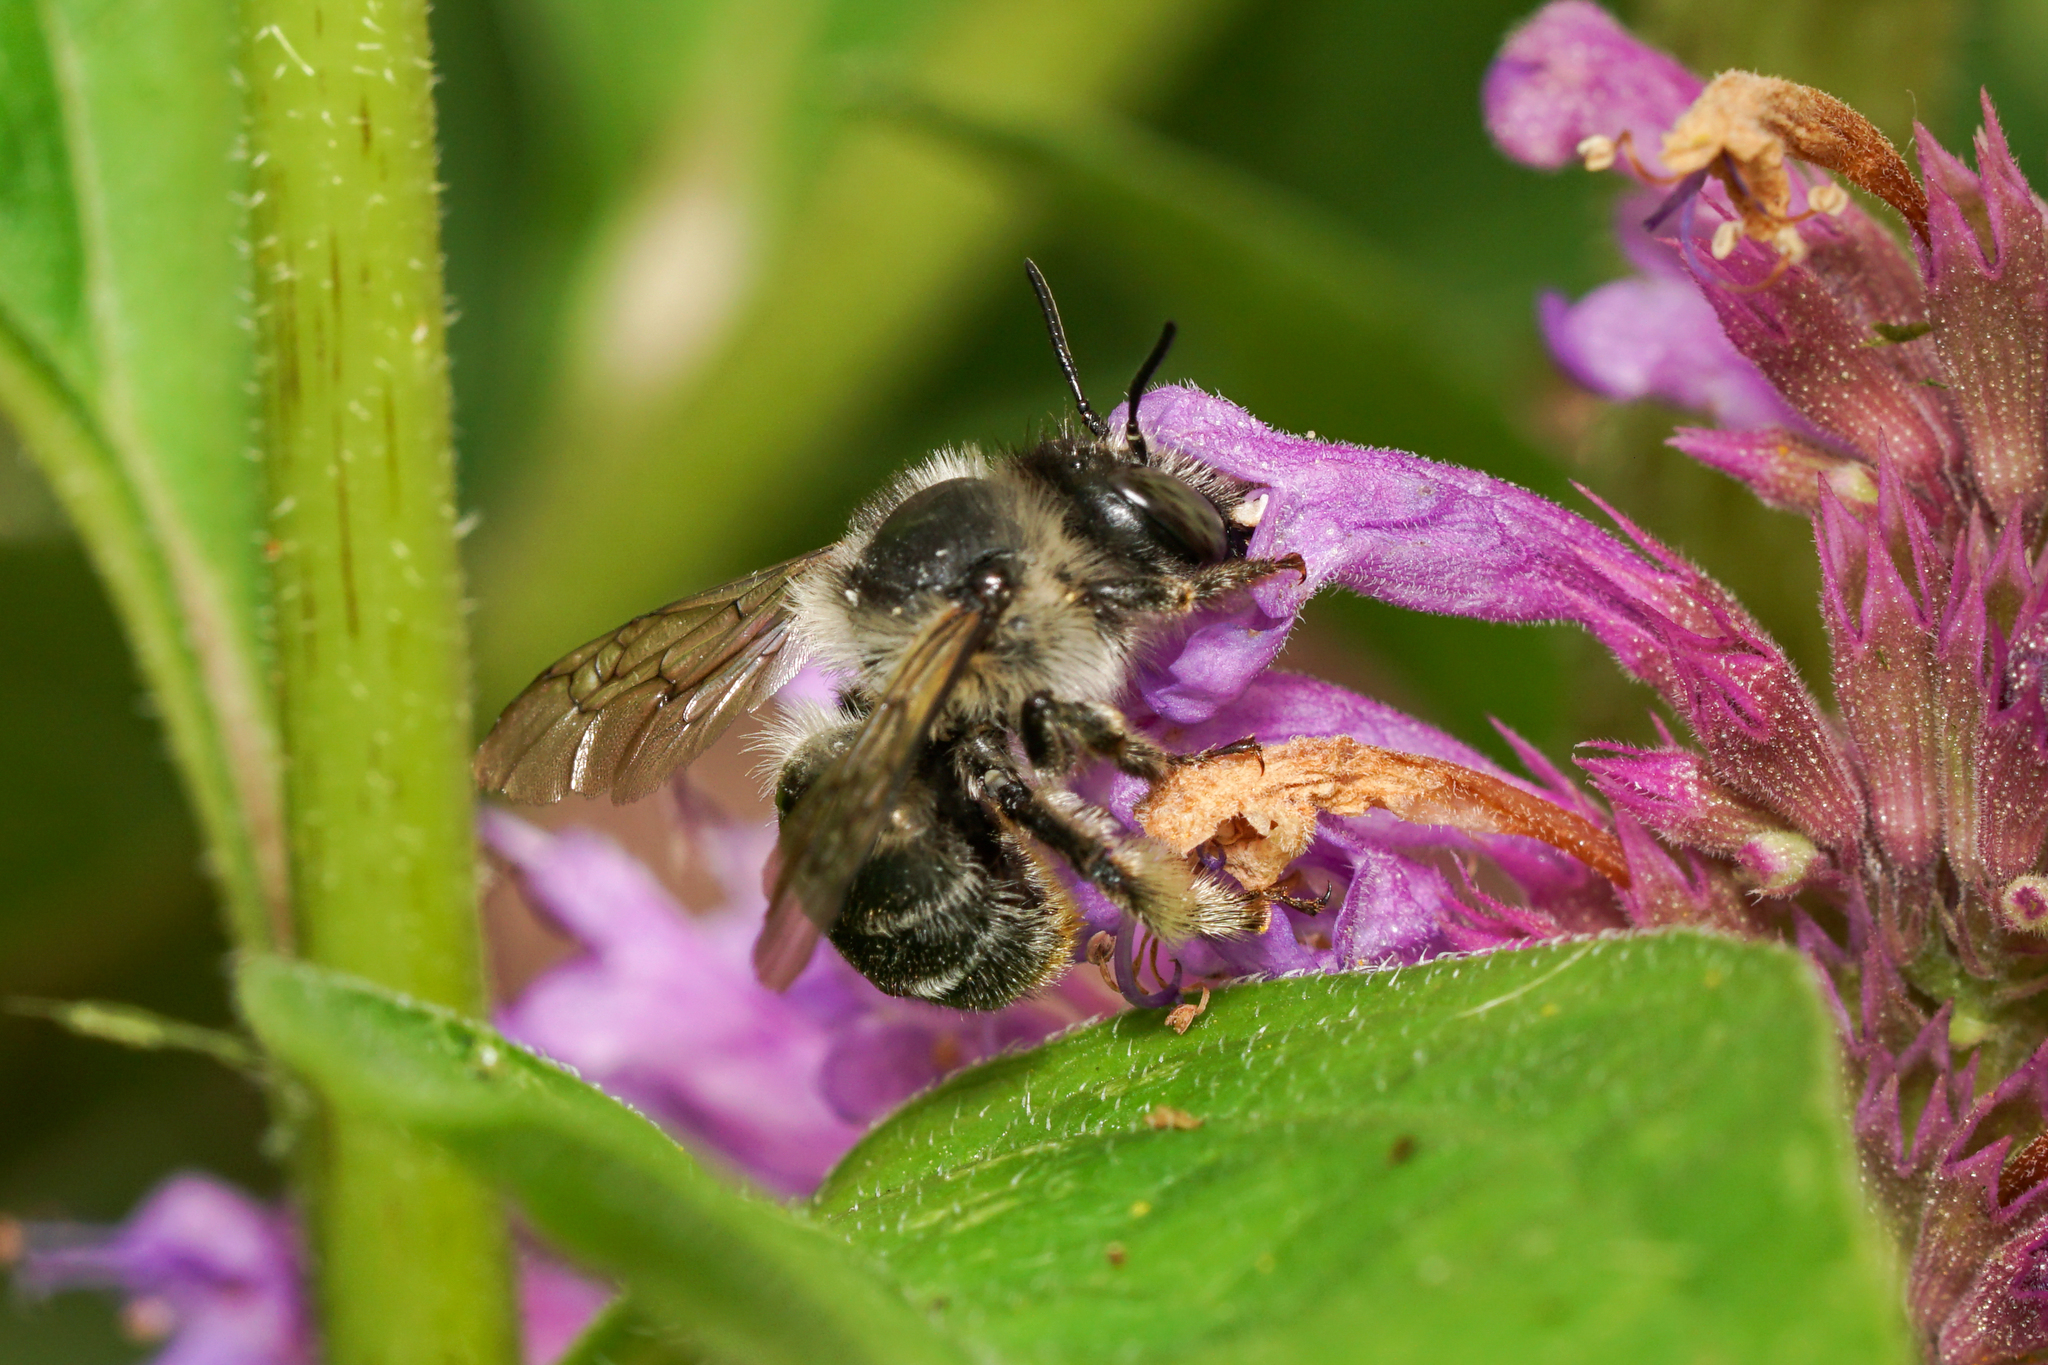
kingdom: Animalia
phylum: Arthropoda
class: Insecta
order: Hymenoptera
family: Apidae
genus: Anthophora
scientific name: Anthophora terminalis
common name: Orange-tipped wood-digger bee
